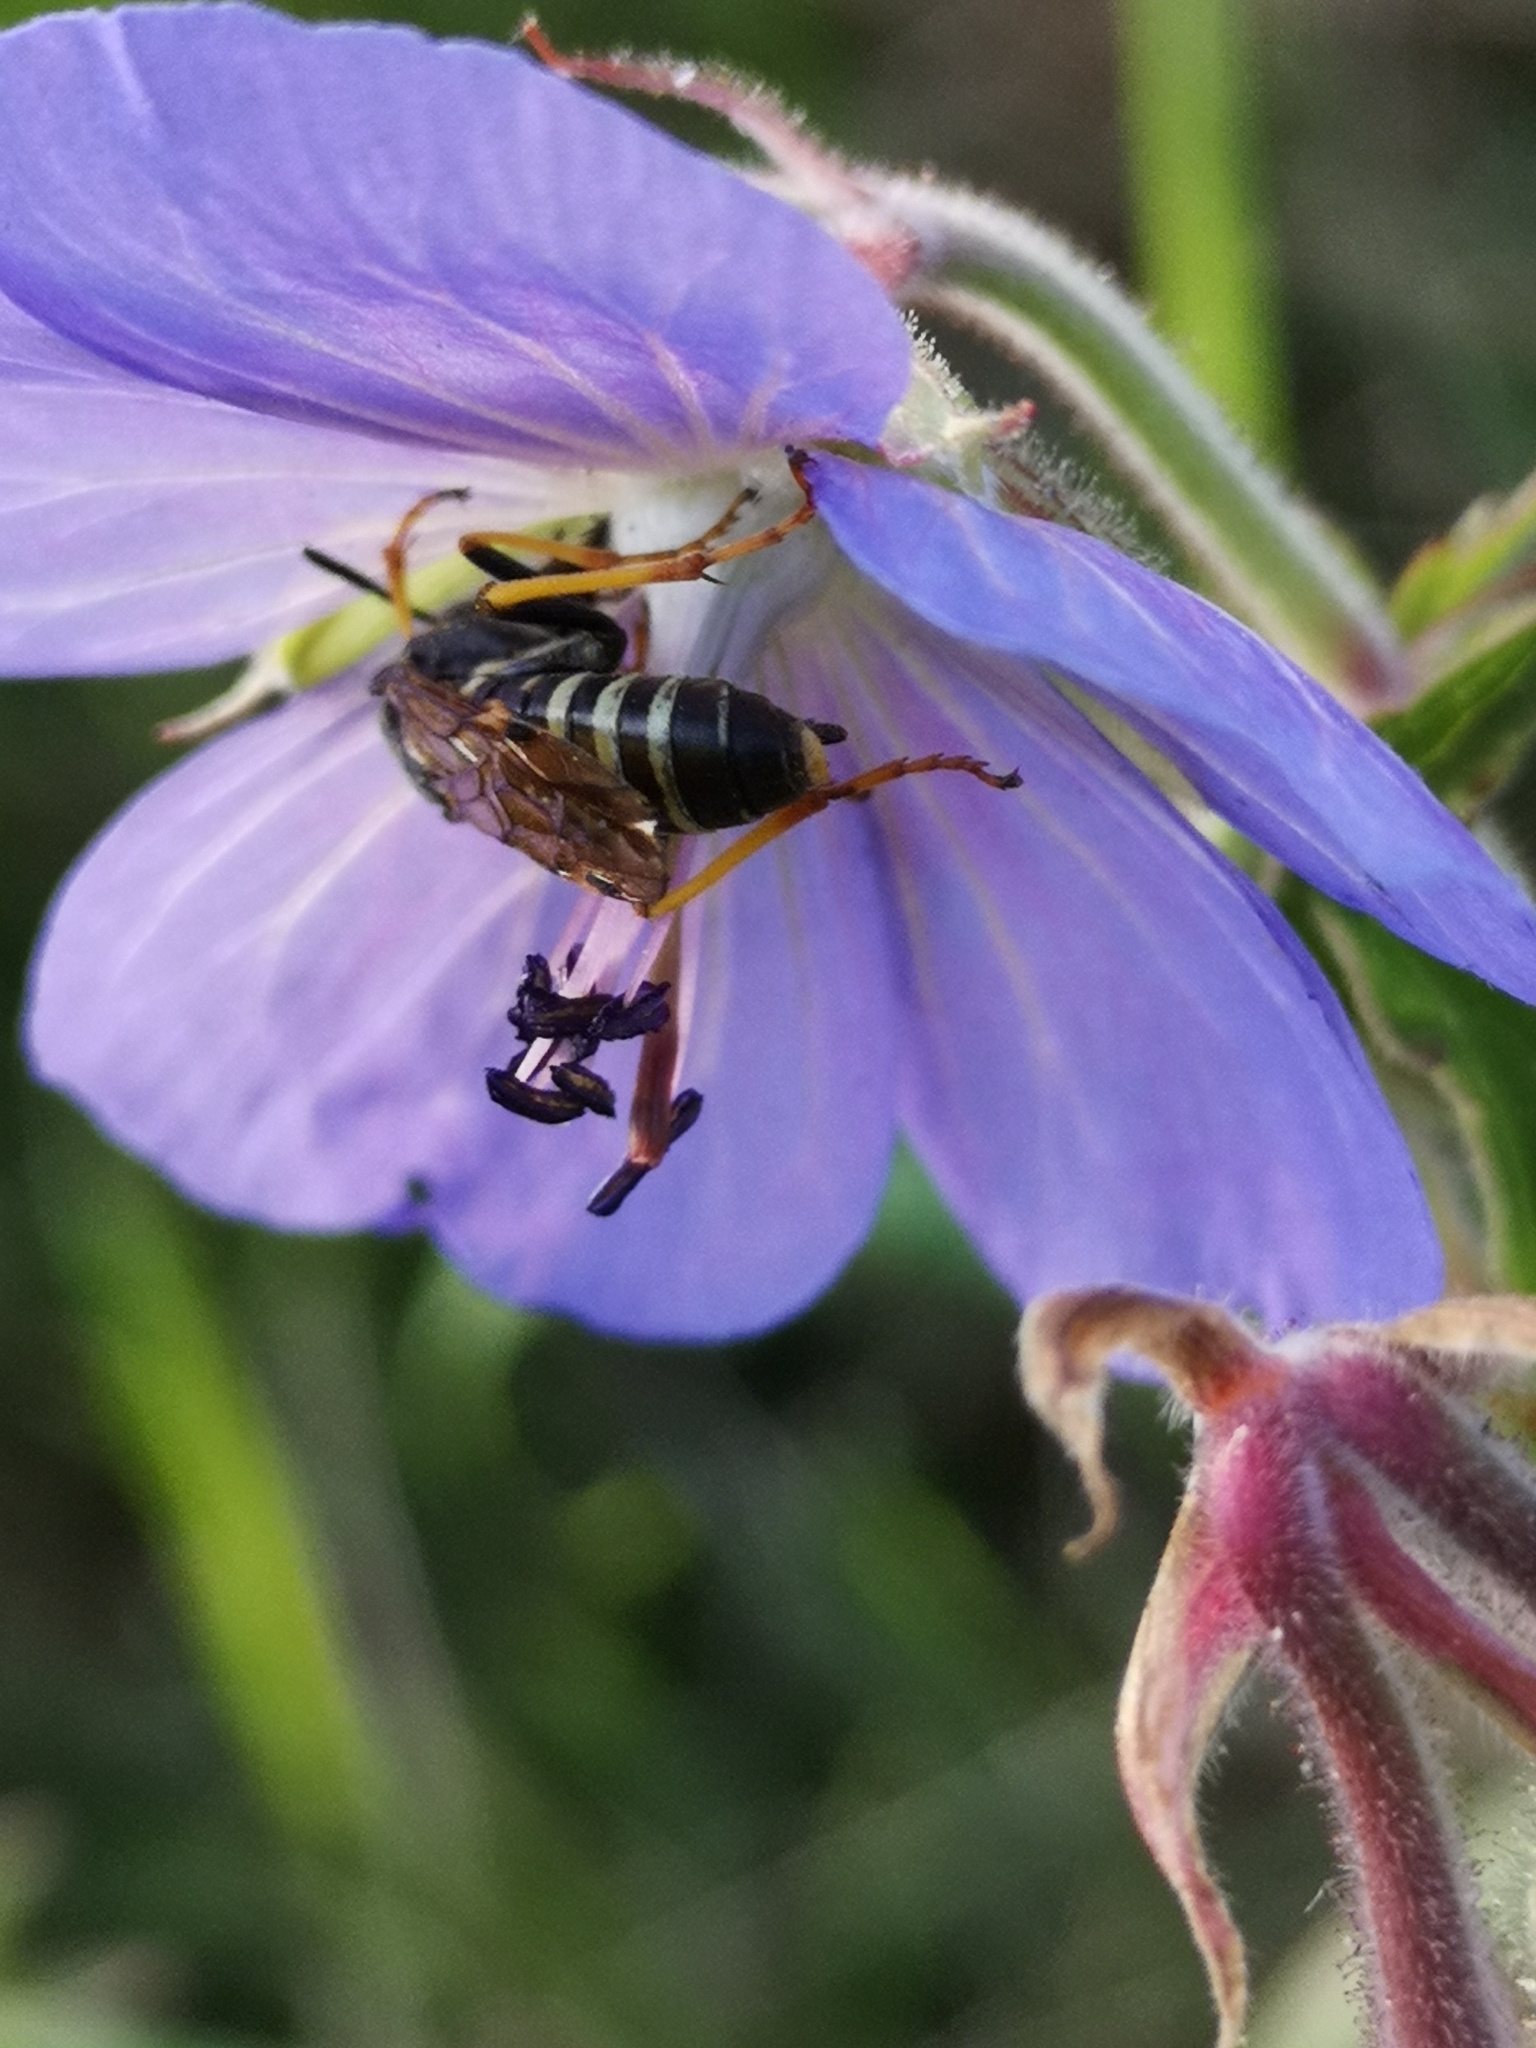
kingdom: Animalia
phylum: Arthropoda
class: Insecta
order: Hymenoptera
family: Tenthredinidae
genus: Tenthredo
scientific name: Tenthredo koehleri
